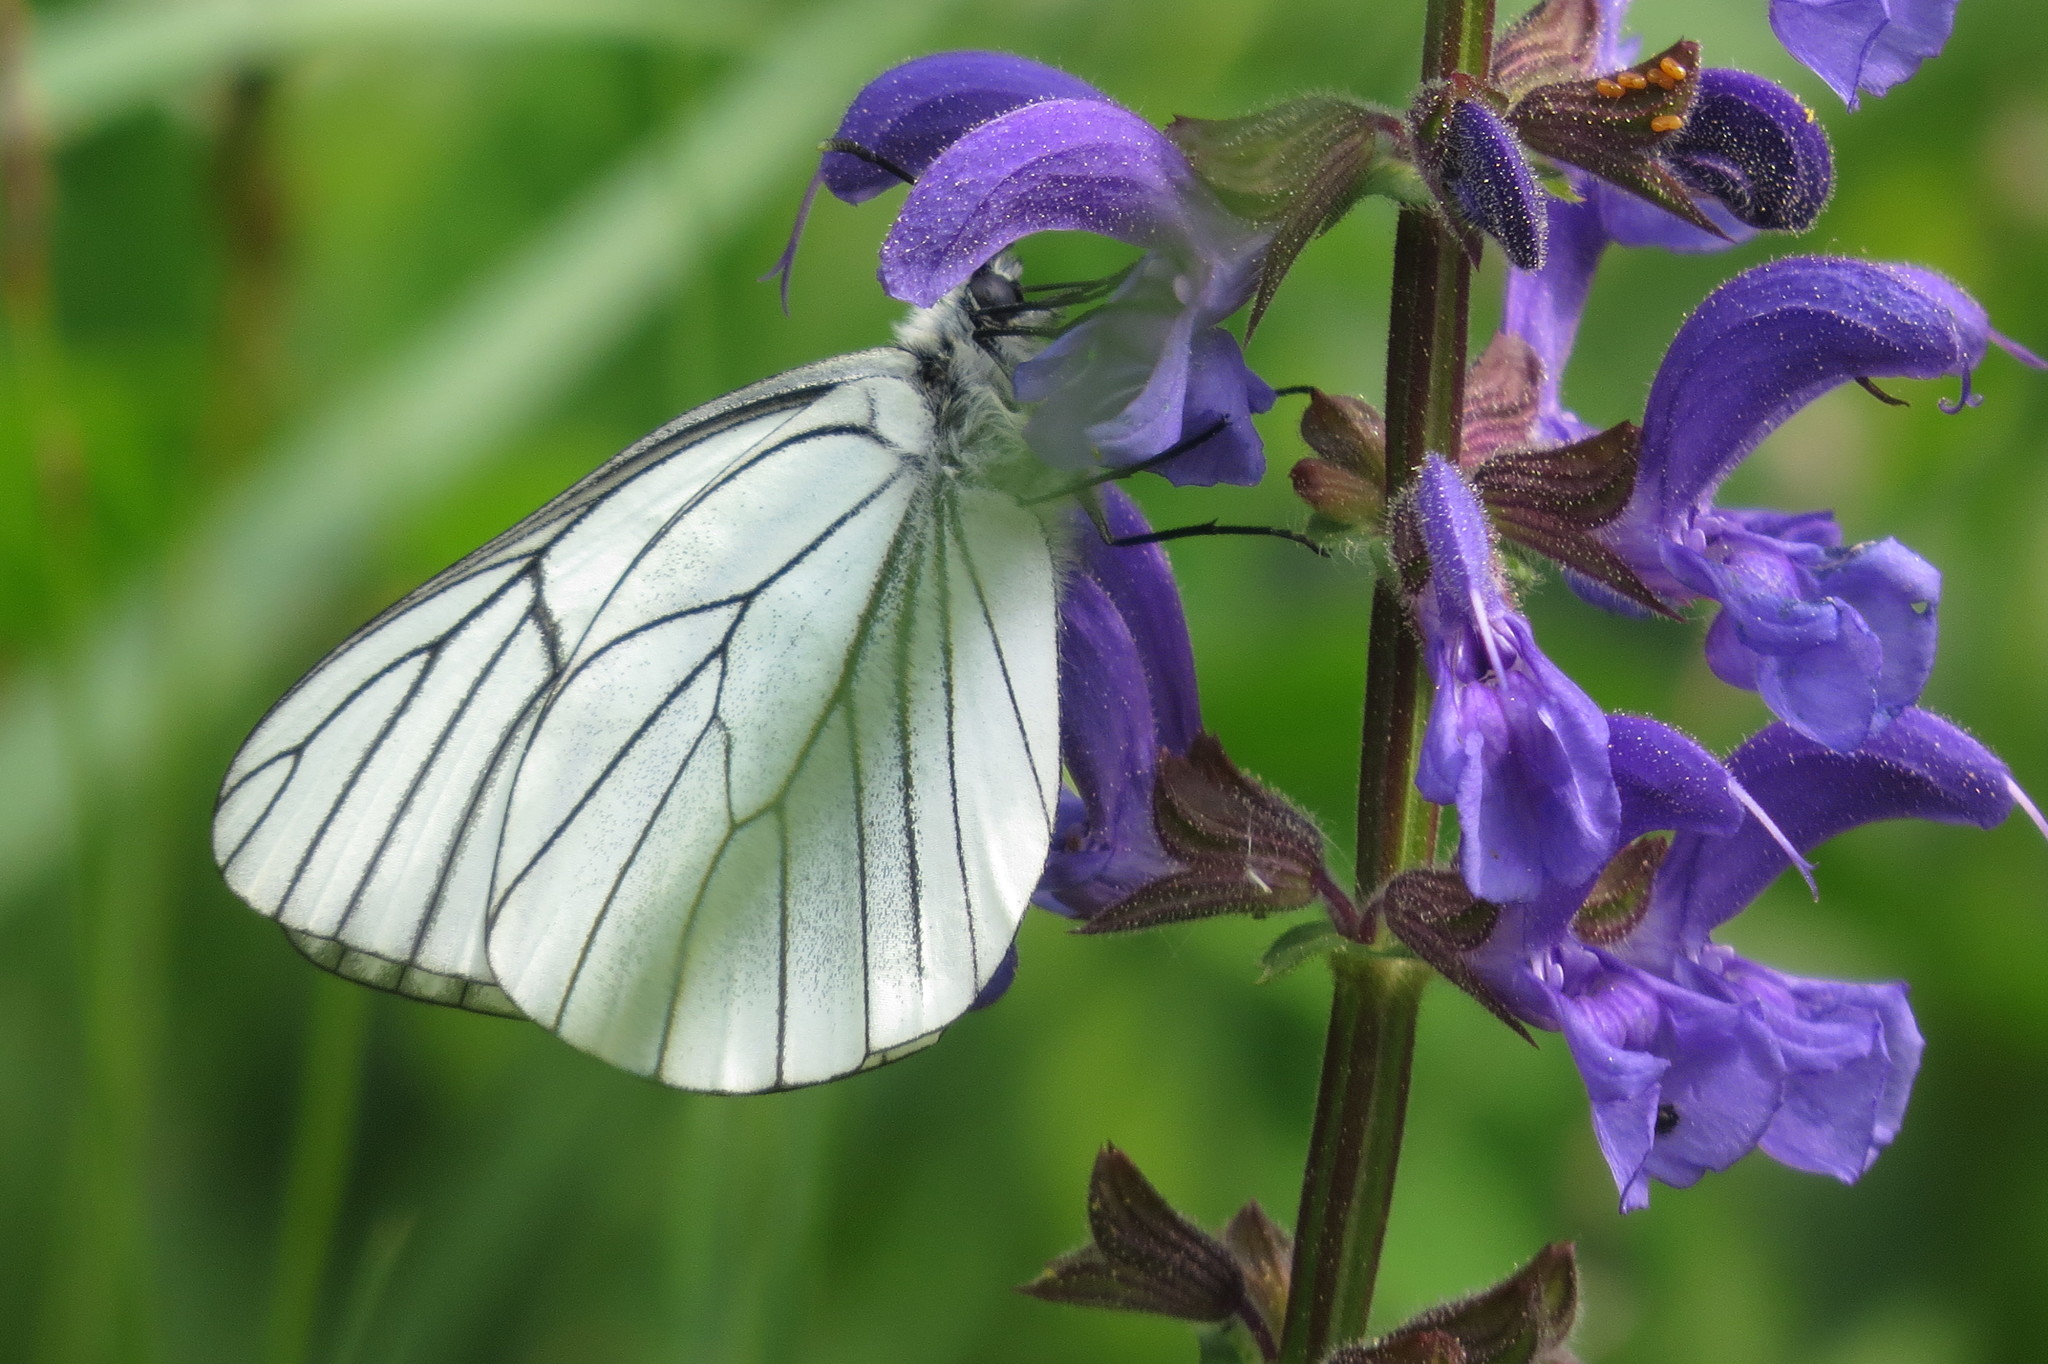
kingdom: Animalia
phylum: Arthropoda
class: Insecta
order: Lepidoptera
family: Pieridae
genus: Aporia
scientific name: Aporia crataegi
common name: Black-veined white
